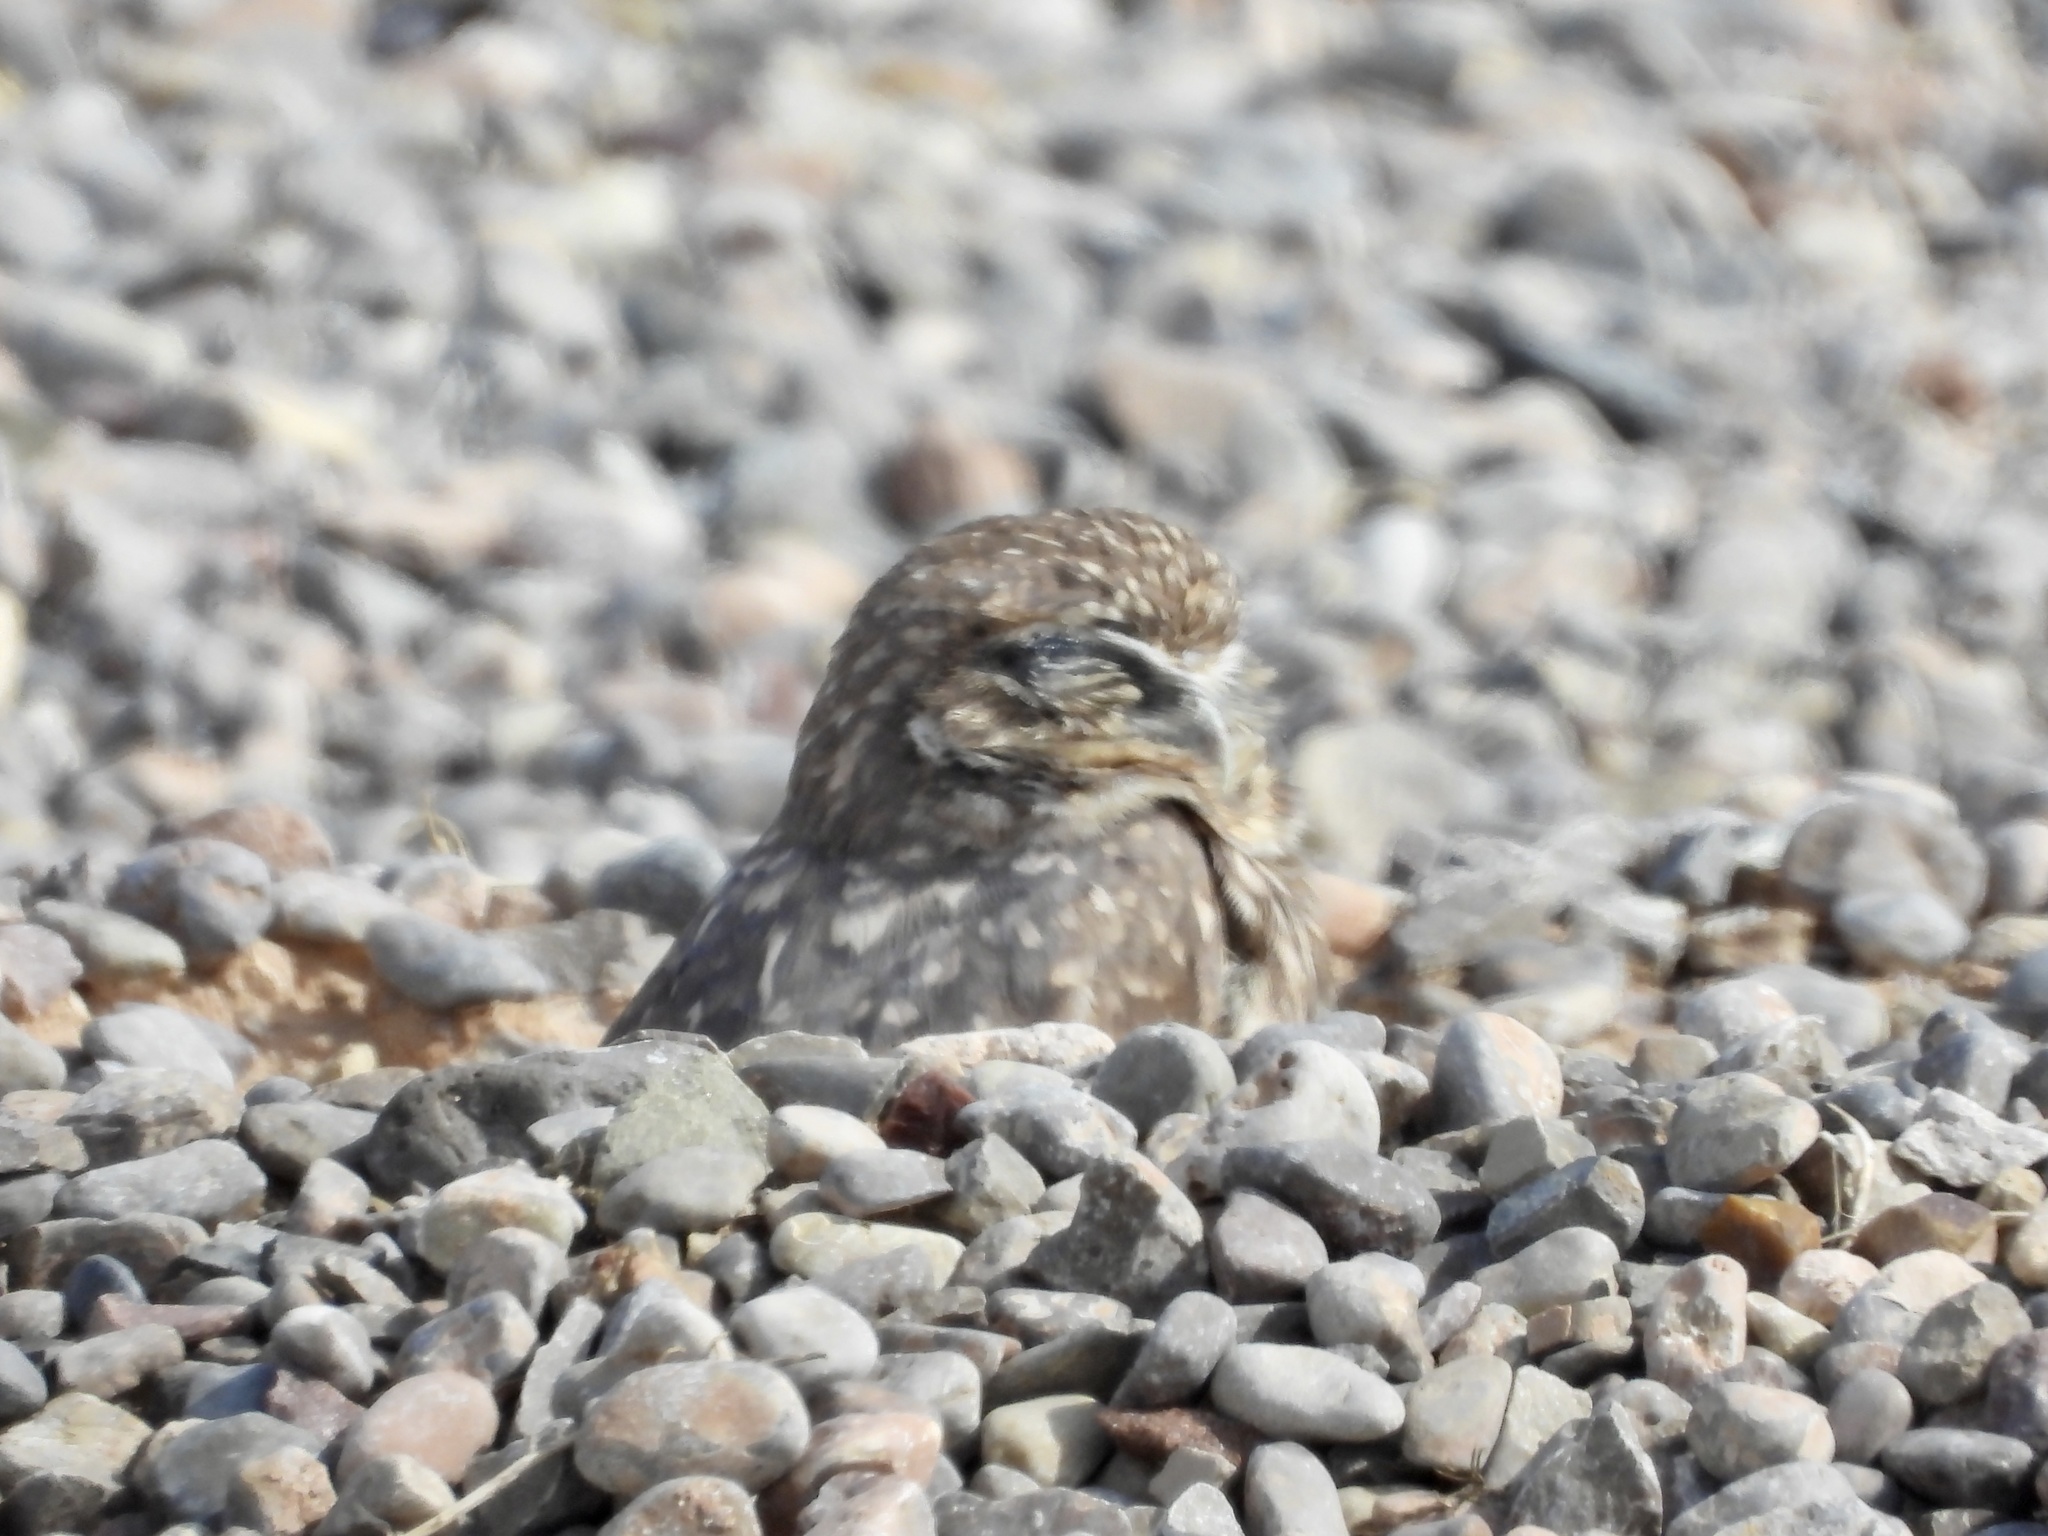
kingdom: Animalia
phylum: Chordata
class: Aves
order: Strigiformes
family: Strigidae
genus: Athene
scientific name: Athene cunicularia
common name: Burrowing owl
